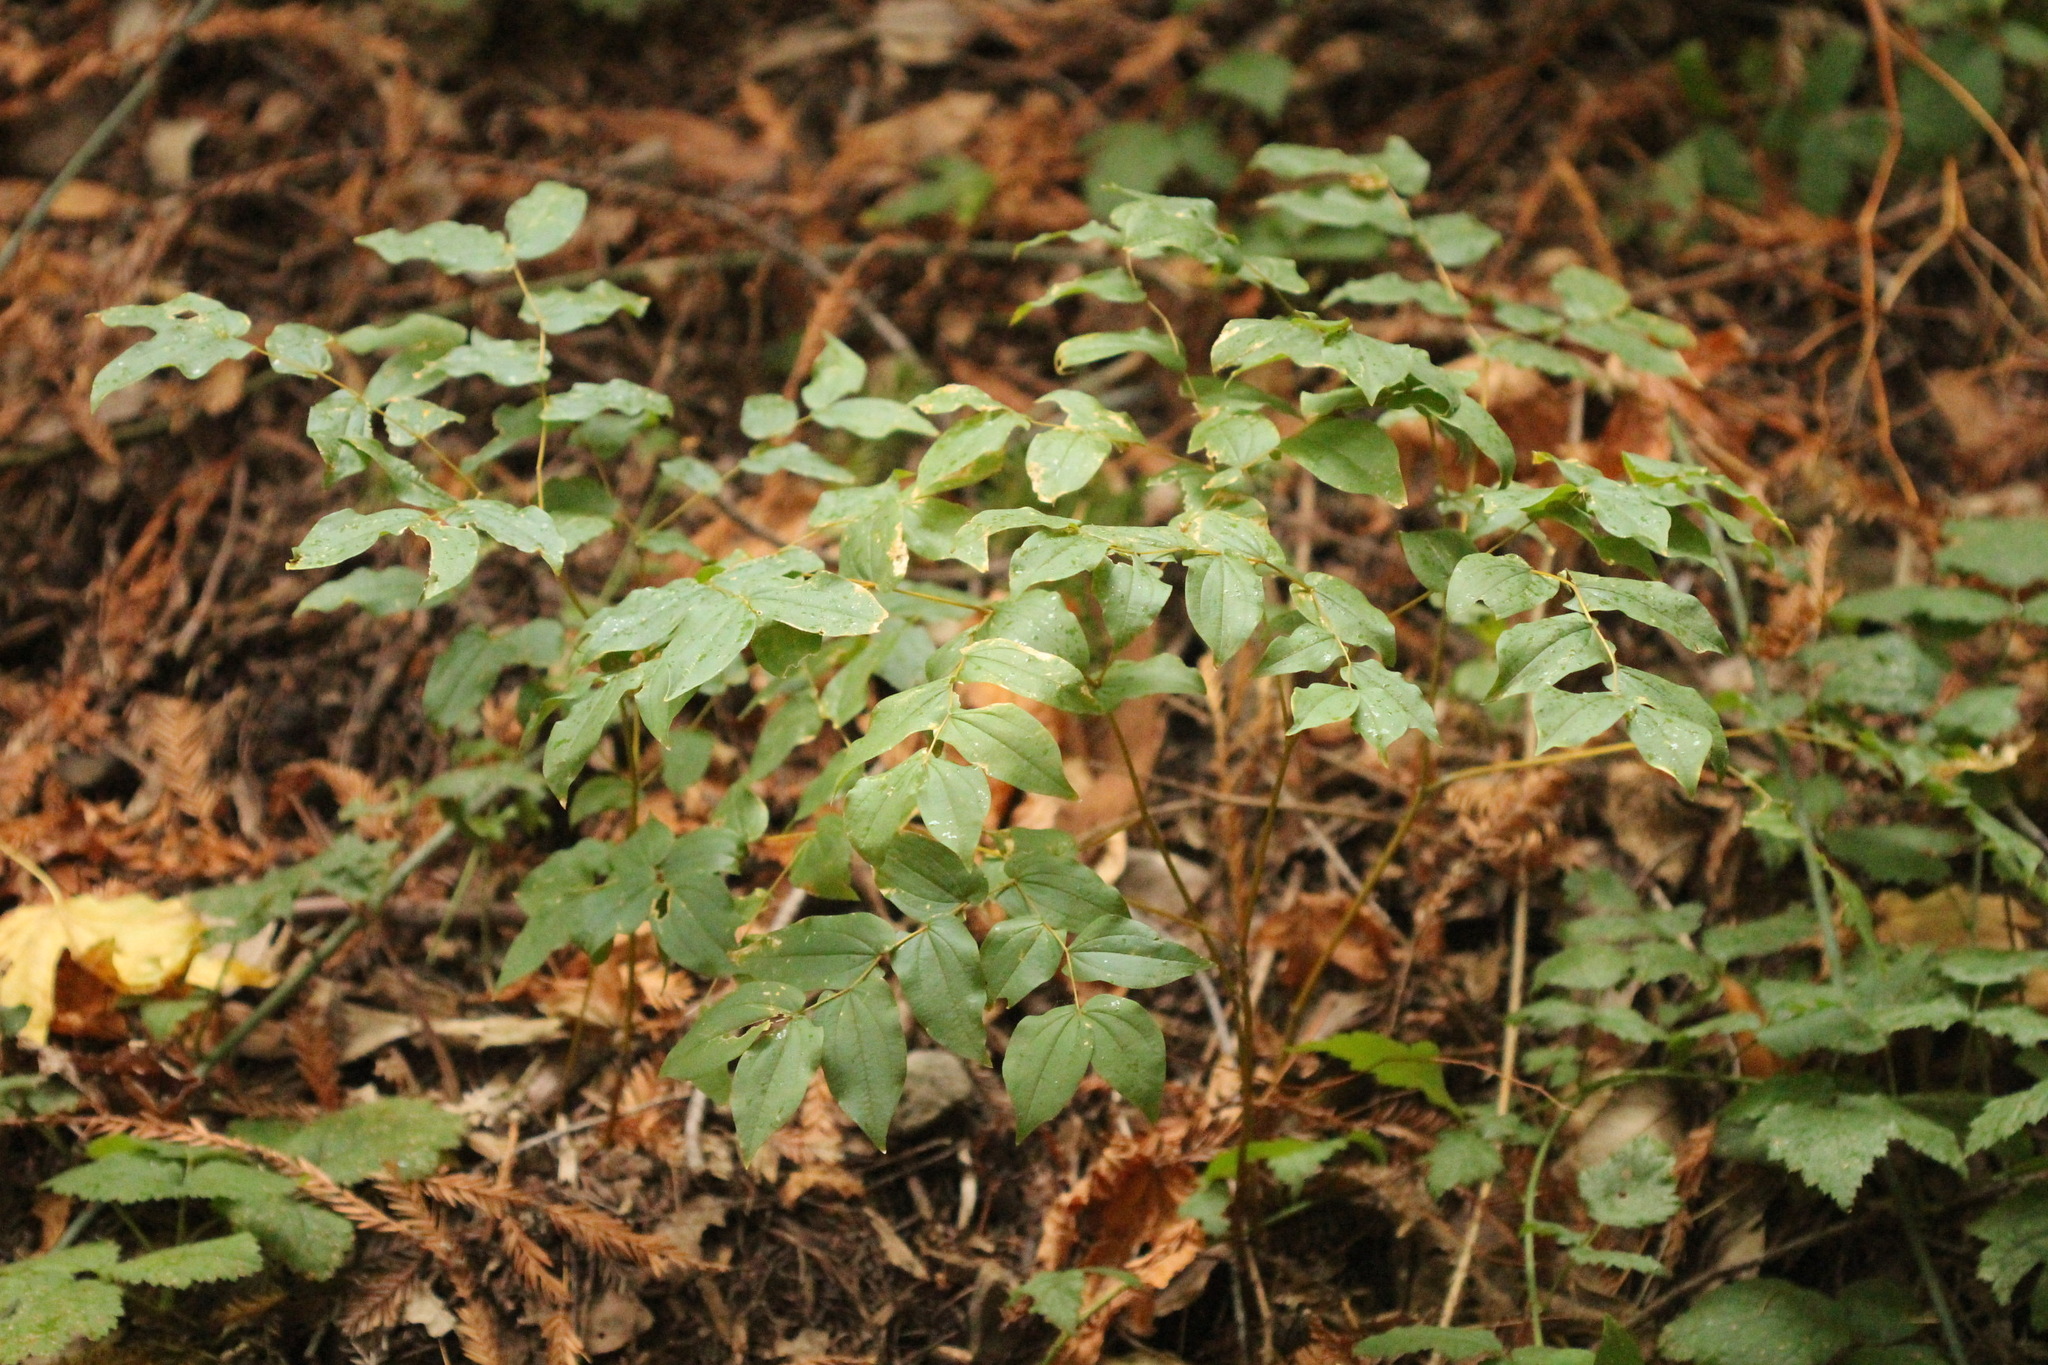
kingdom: Plantae
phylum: Tracheophyta
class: Liliopsida
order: Liliales
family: Liliaceae
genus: Prosartes
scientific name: Prosartes hookeri
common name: Fairy-bells
